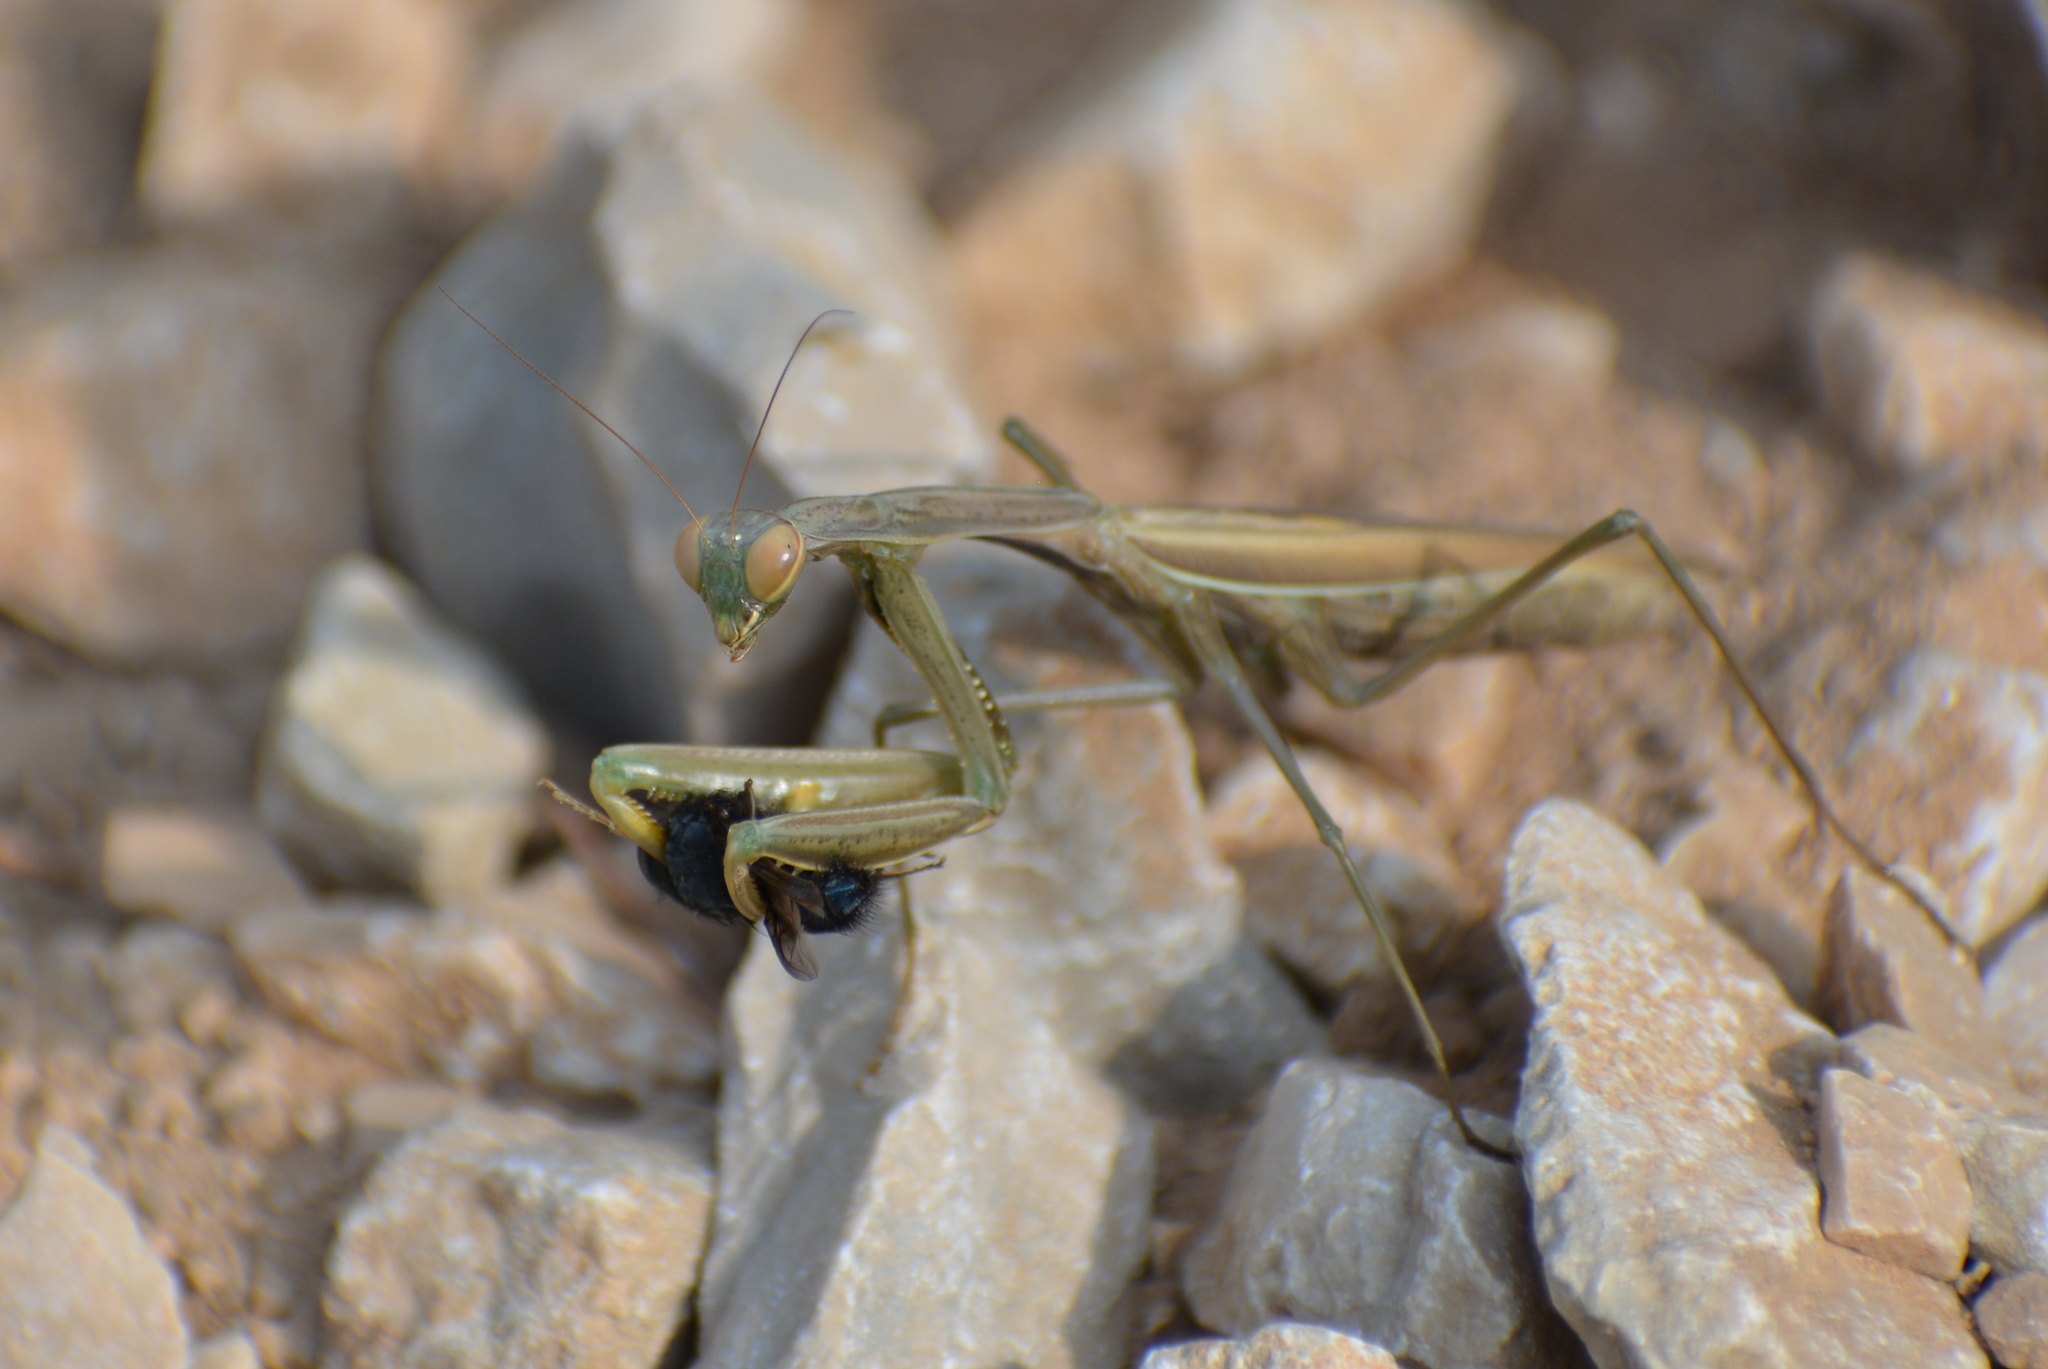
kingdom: Animalia
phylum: Arthropoda
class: Insecta
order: Mantodea
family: Mantidae
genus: Mantis
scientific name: Mantis religiosa
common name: Praying mantis
